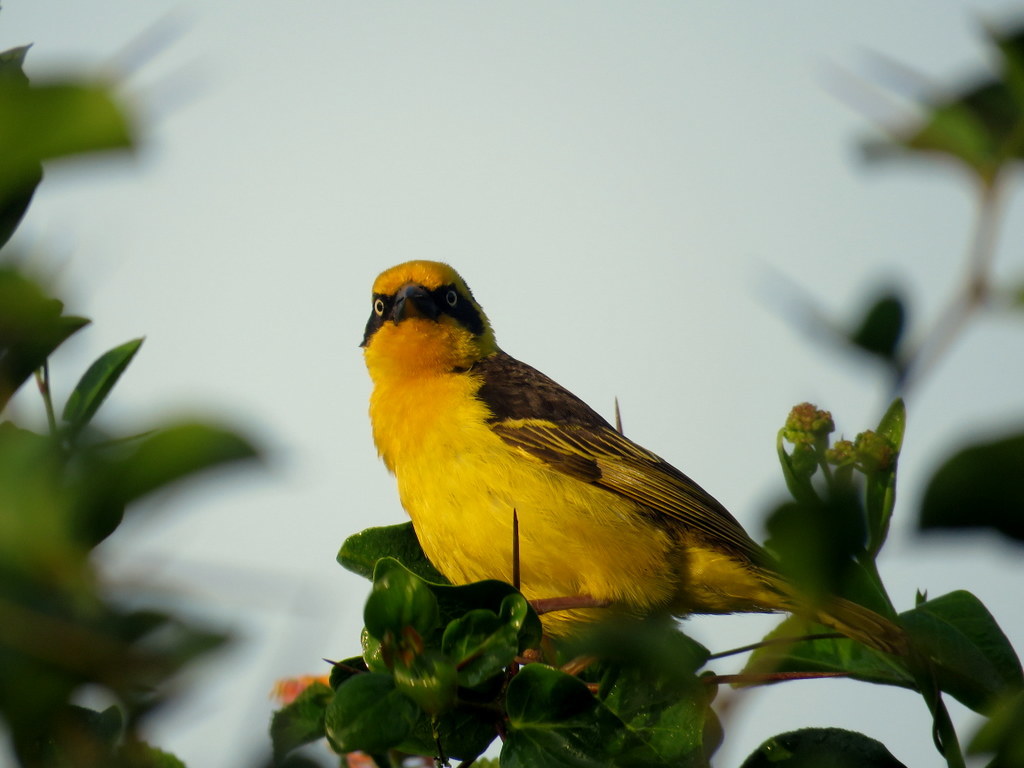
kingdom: Animalia
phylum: Chordata
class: Aves
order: Passeriformes
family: Ploceidae
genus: Ploceus
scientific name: Ploceus baglafecht
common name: Baglafecht weaver
